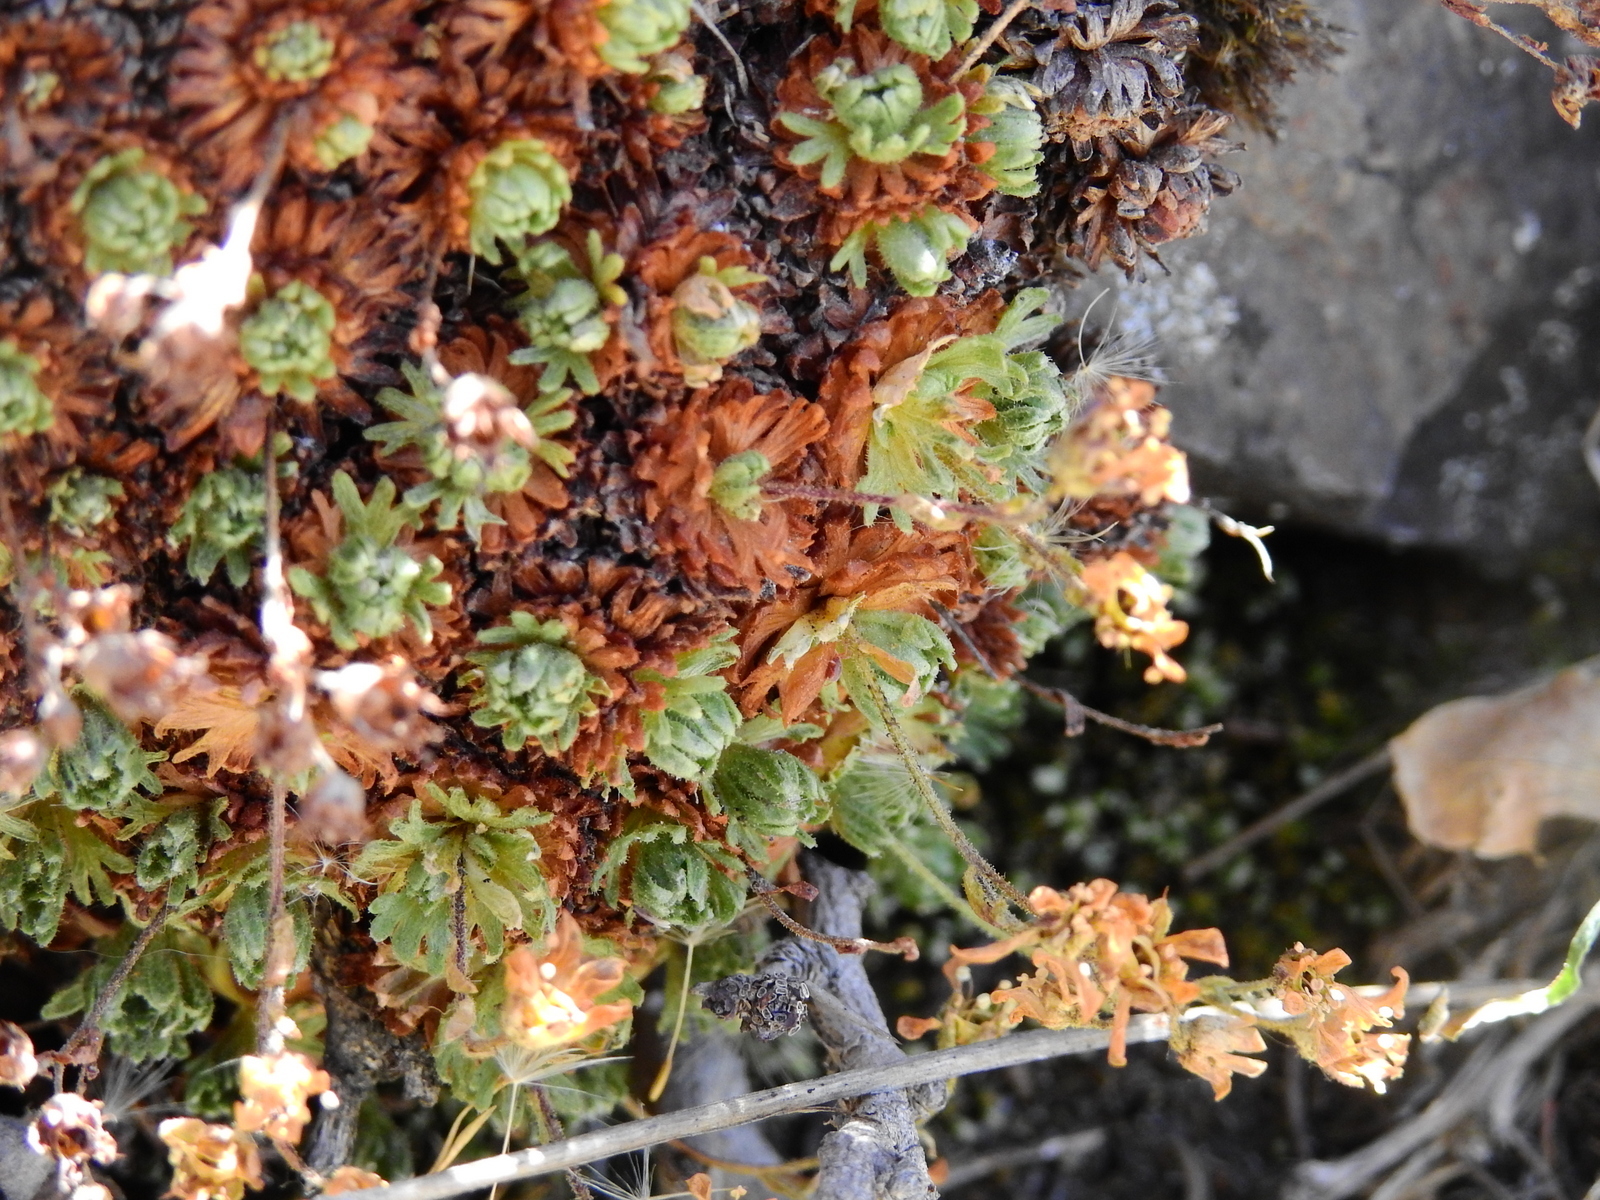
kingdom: Plantae
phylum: Tracheophyta
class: Magnoliopsida
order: Saxifragales
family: Saxifragaceae
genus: Saxifraga
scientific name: Saxifraga magellanica
